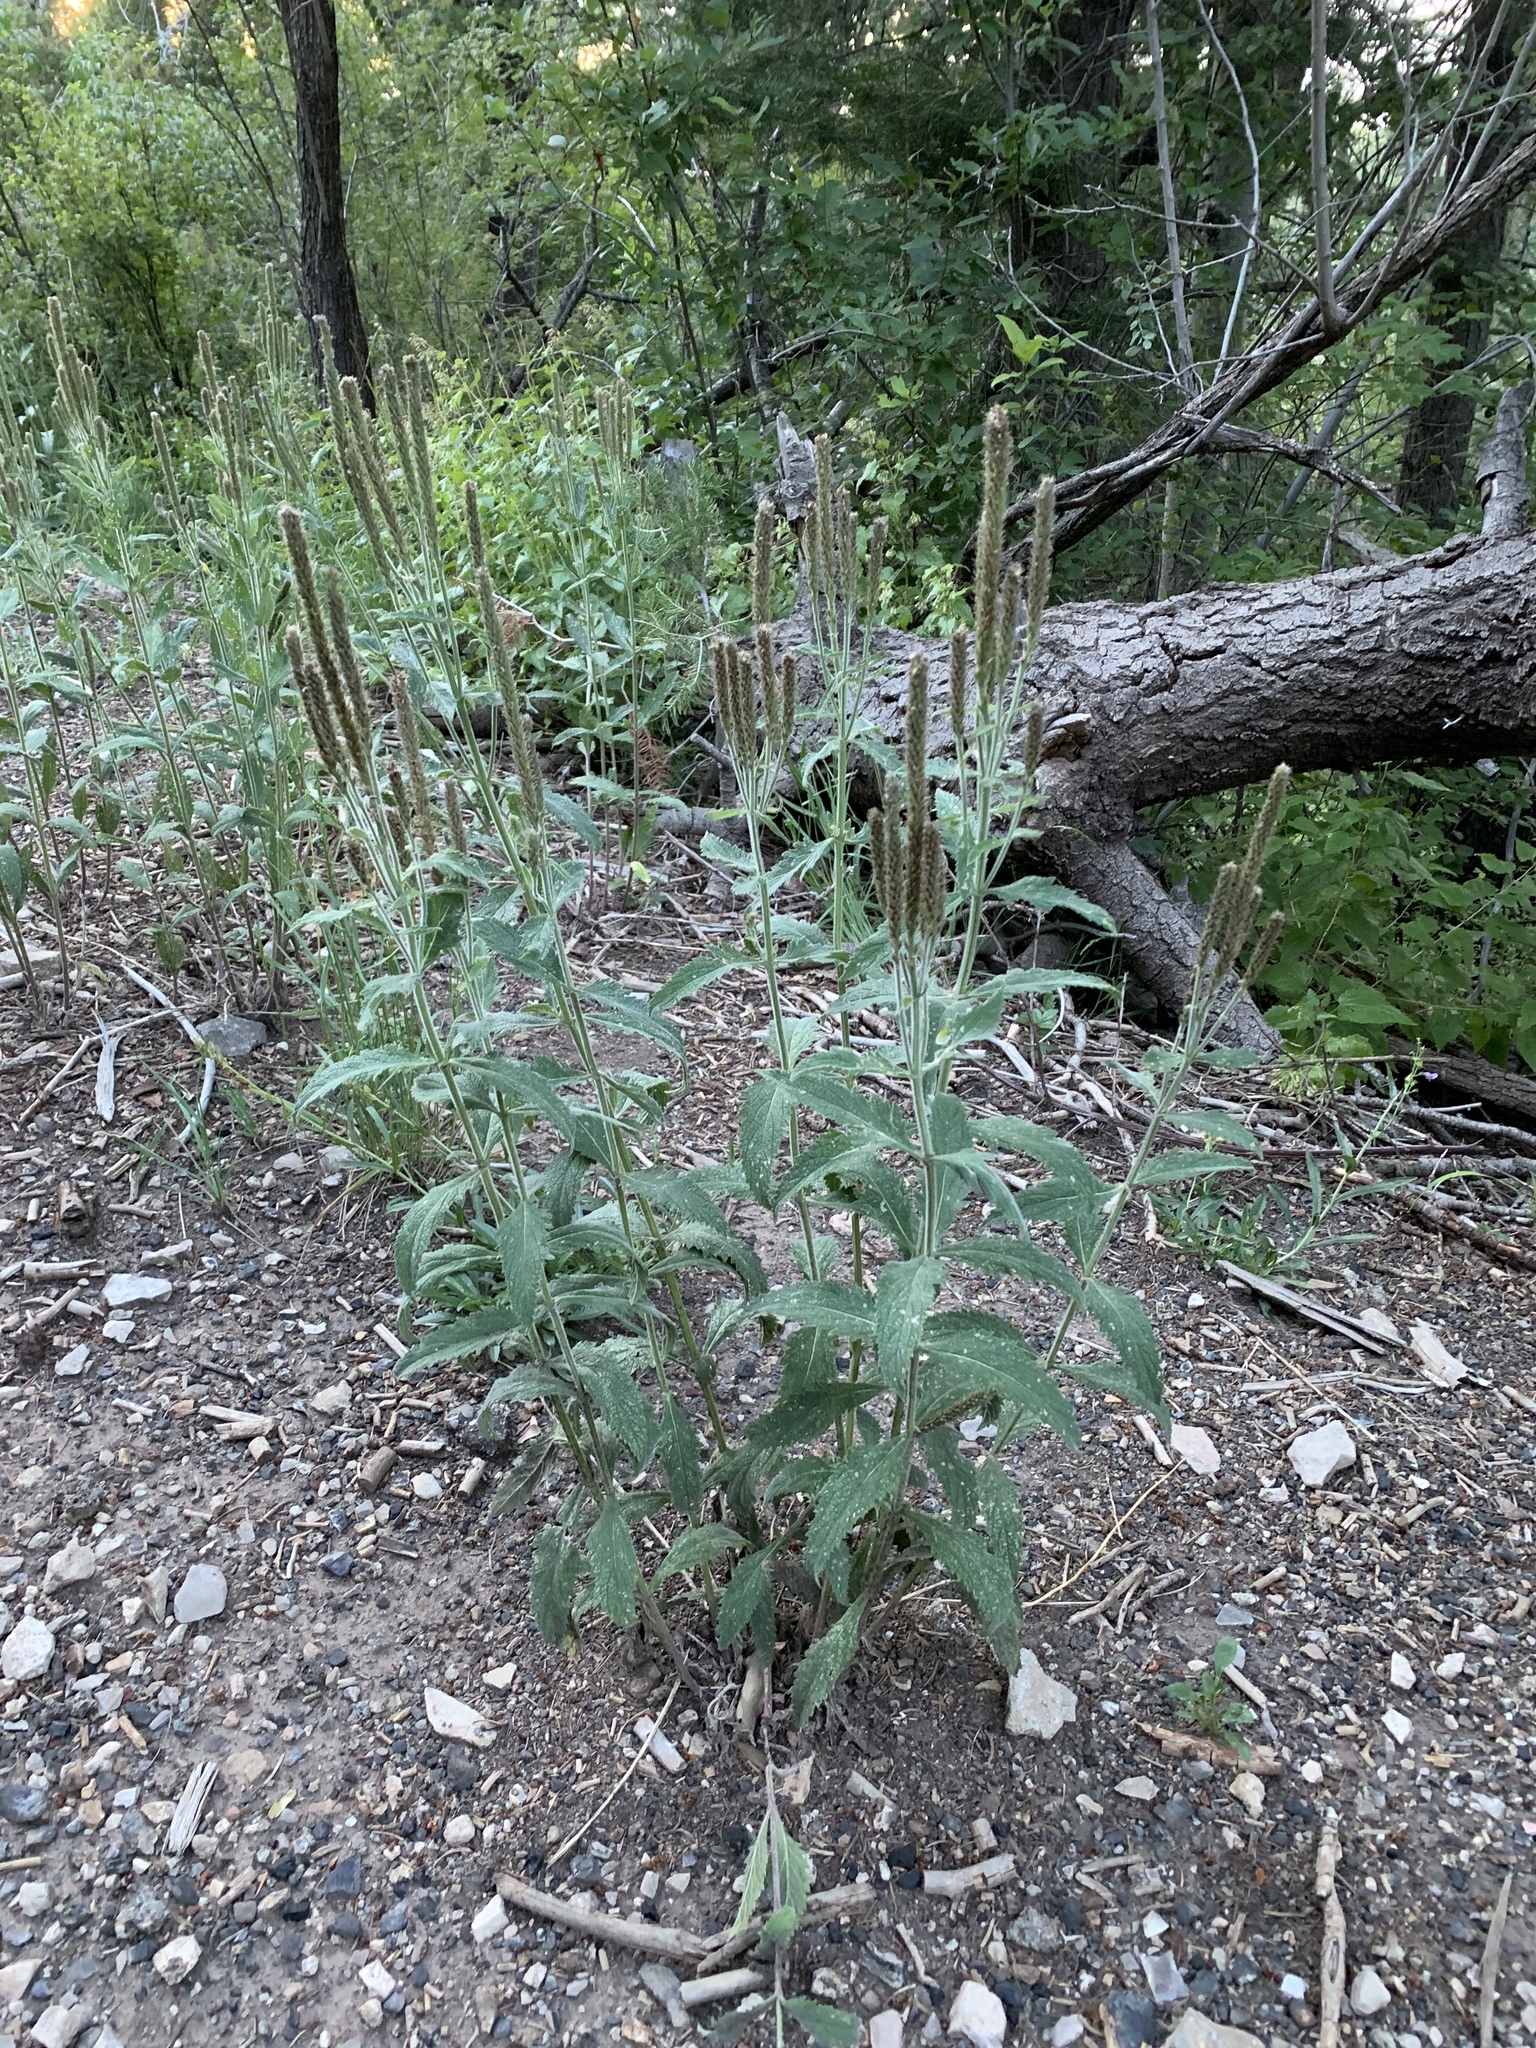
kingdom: Plantae
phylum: Tracheophyta
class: Magnoliopsida
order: Lamiales
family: Verbenaceae
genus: Verbena
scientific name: Verbena macdougalii
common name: New mexico vervain
